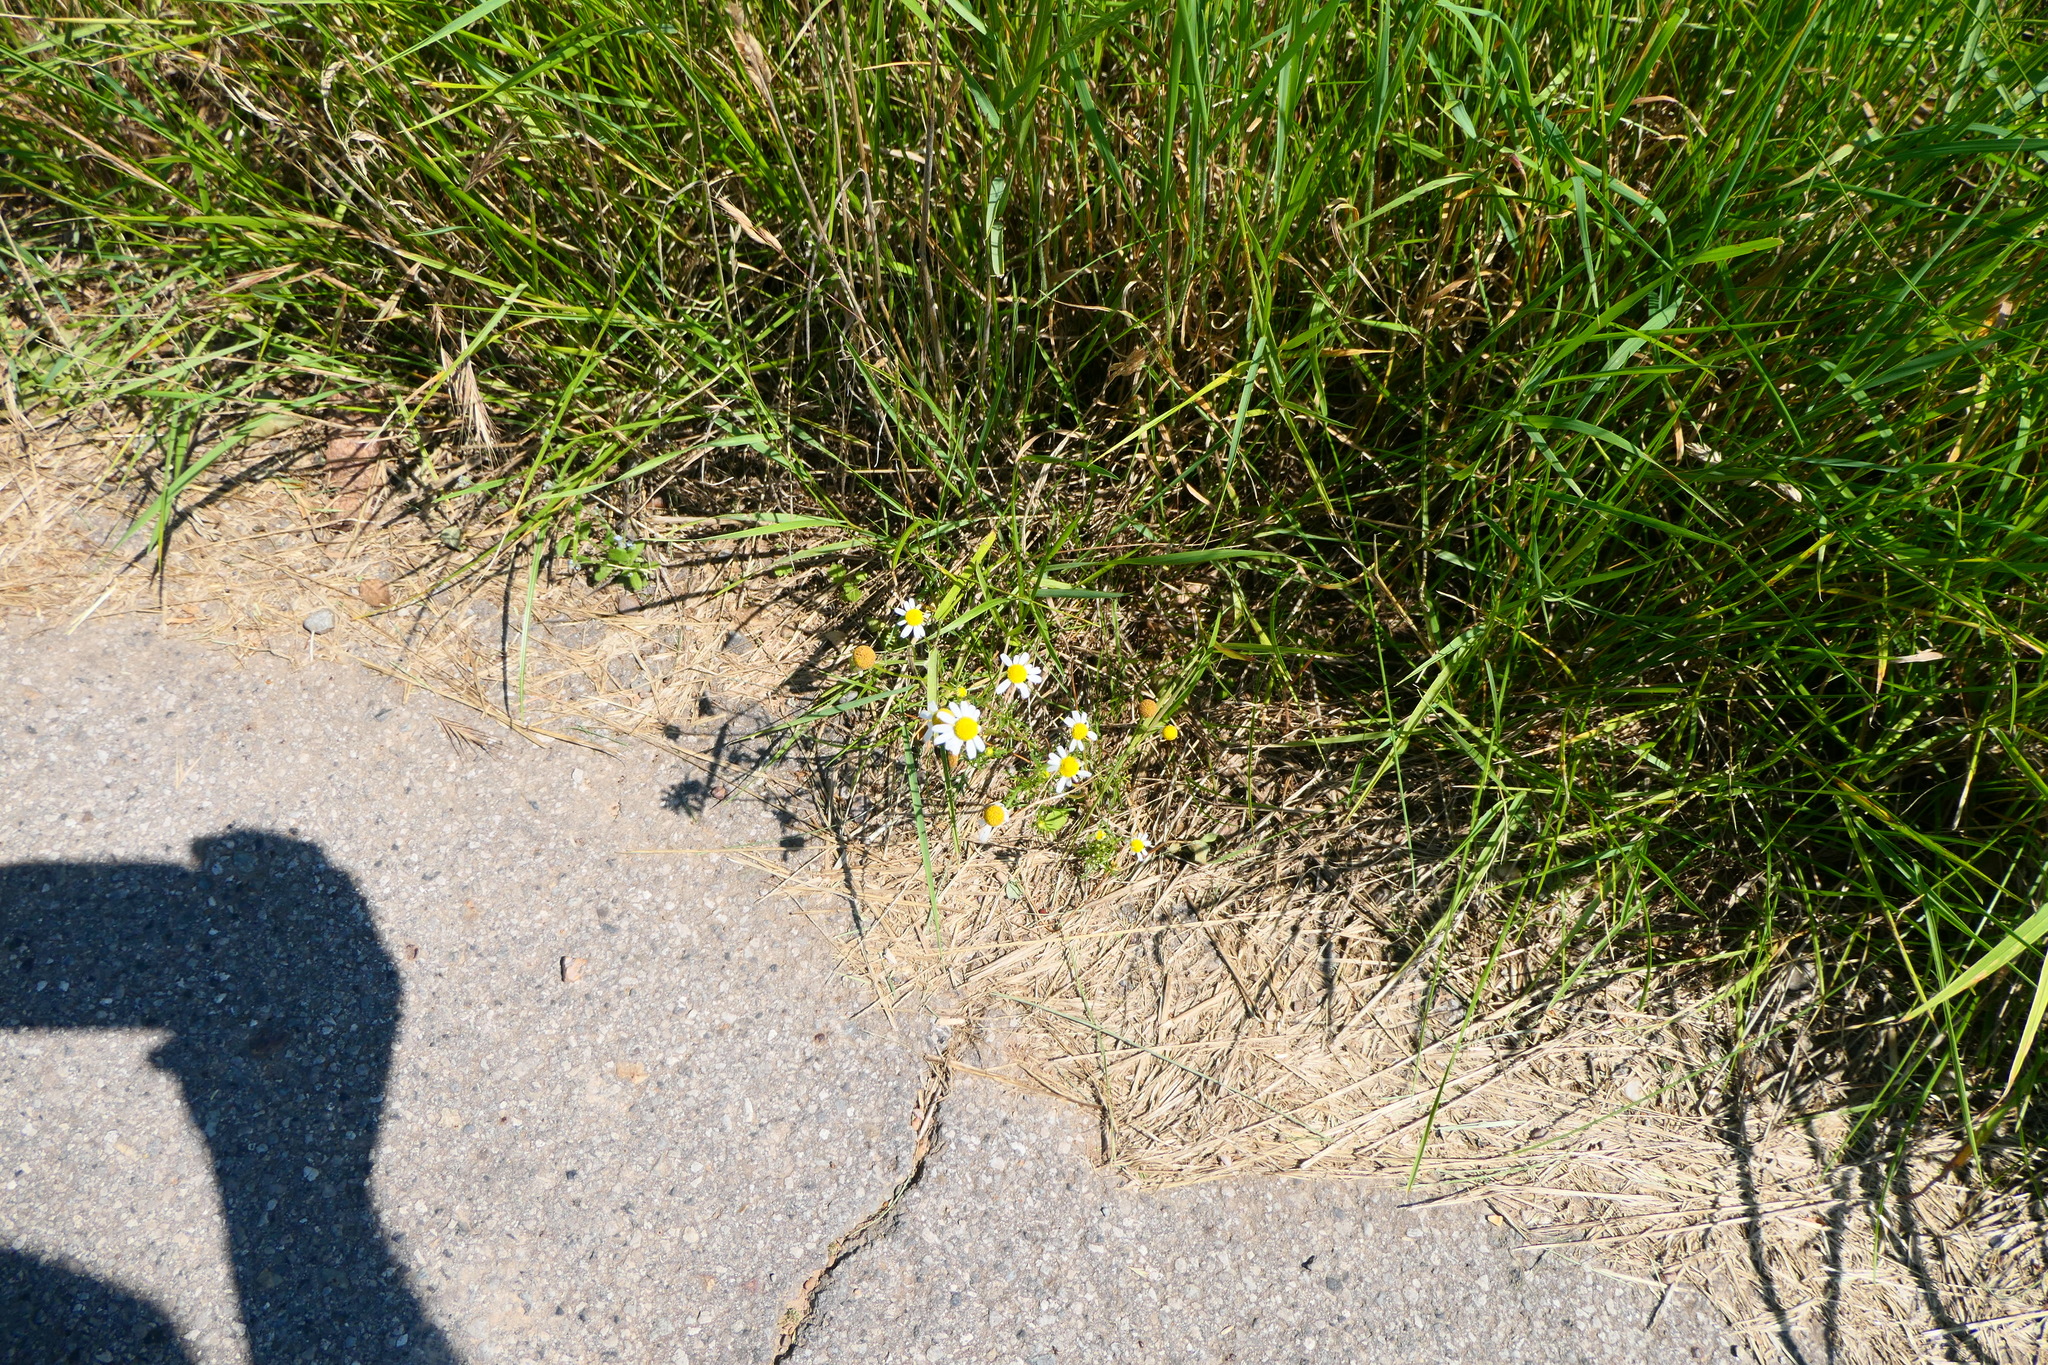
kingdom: Plantae
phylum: Tracheophyta
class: Magnoliopsida
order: Asterales
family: Asteraceae
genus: Tripleurospermum
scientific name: Tripleurospermum inodorum
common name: Scentless mayweed
